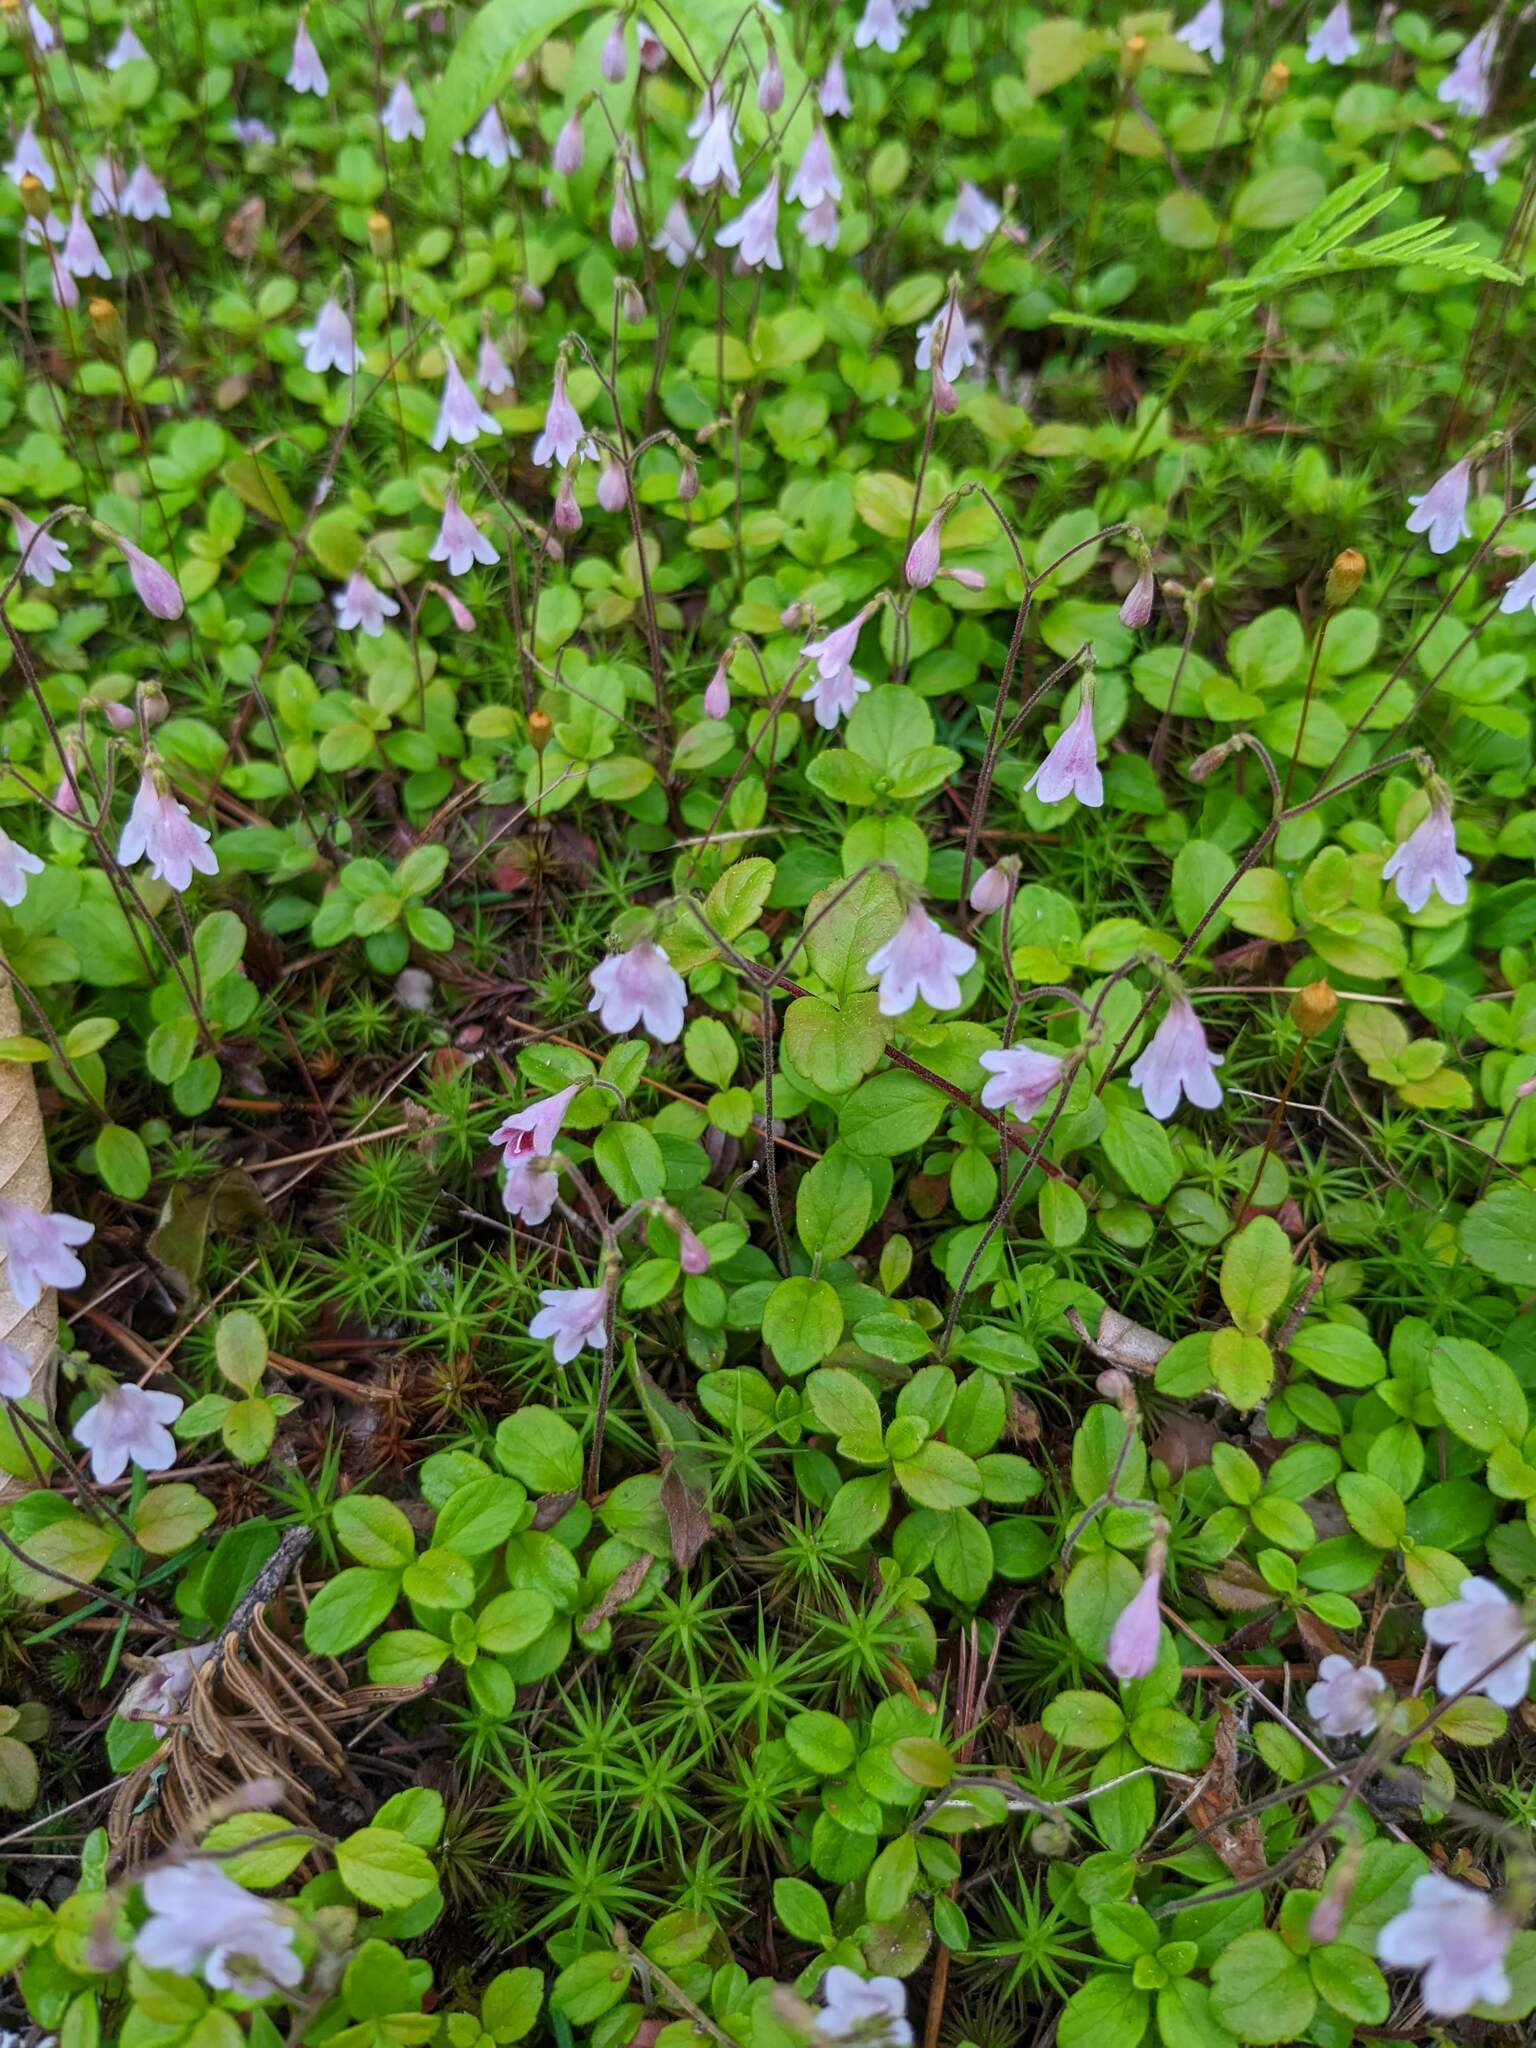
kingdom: Plantae
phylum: Tracheophyta
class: Magnoliopsida
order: Dipsacales
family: Caprifoliaceae
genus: Linnaea
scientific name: Linnaea borealis
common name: Twinflower
